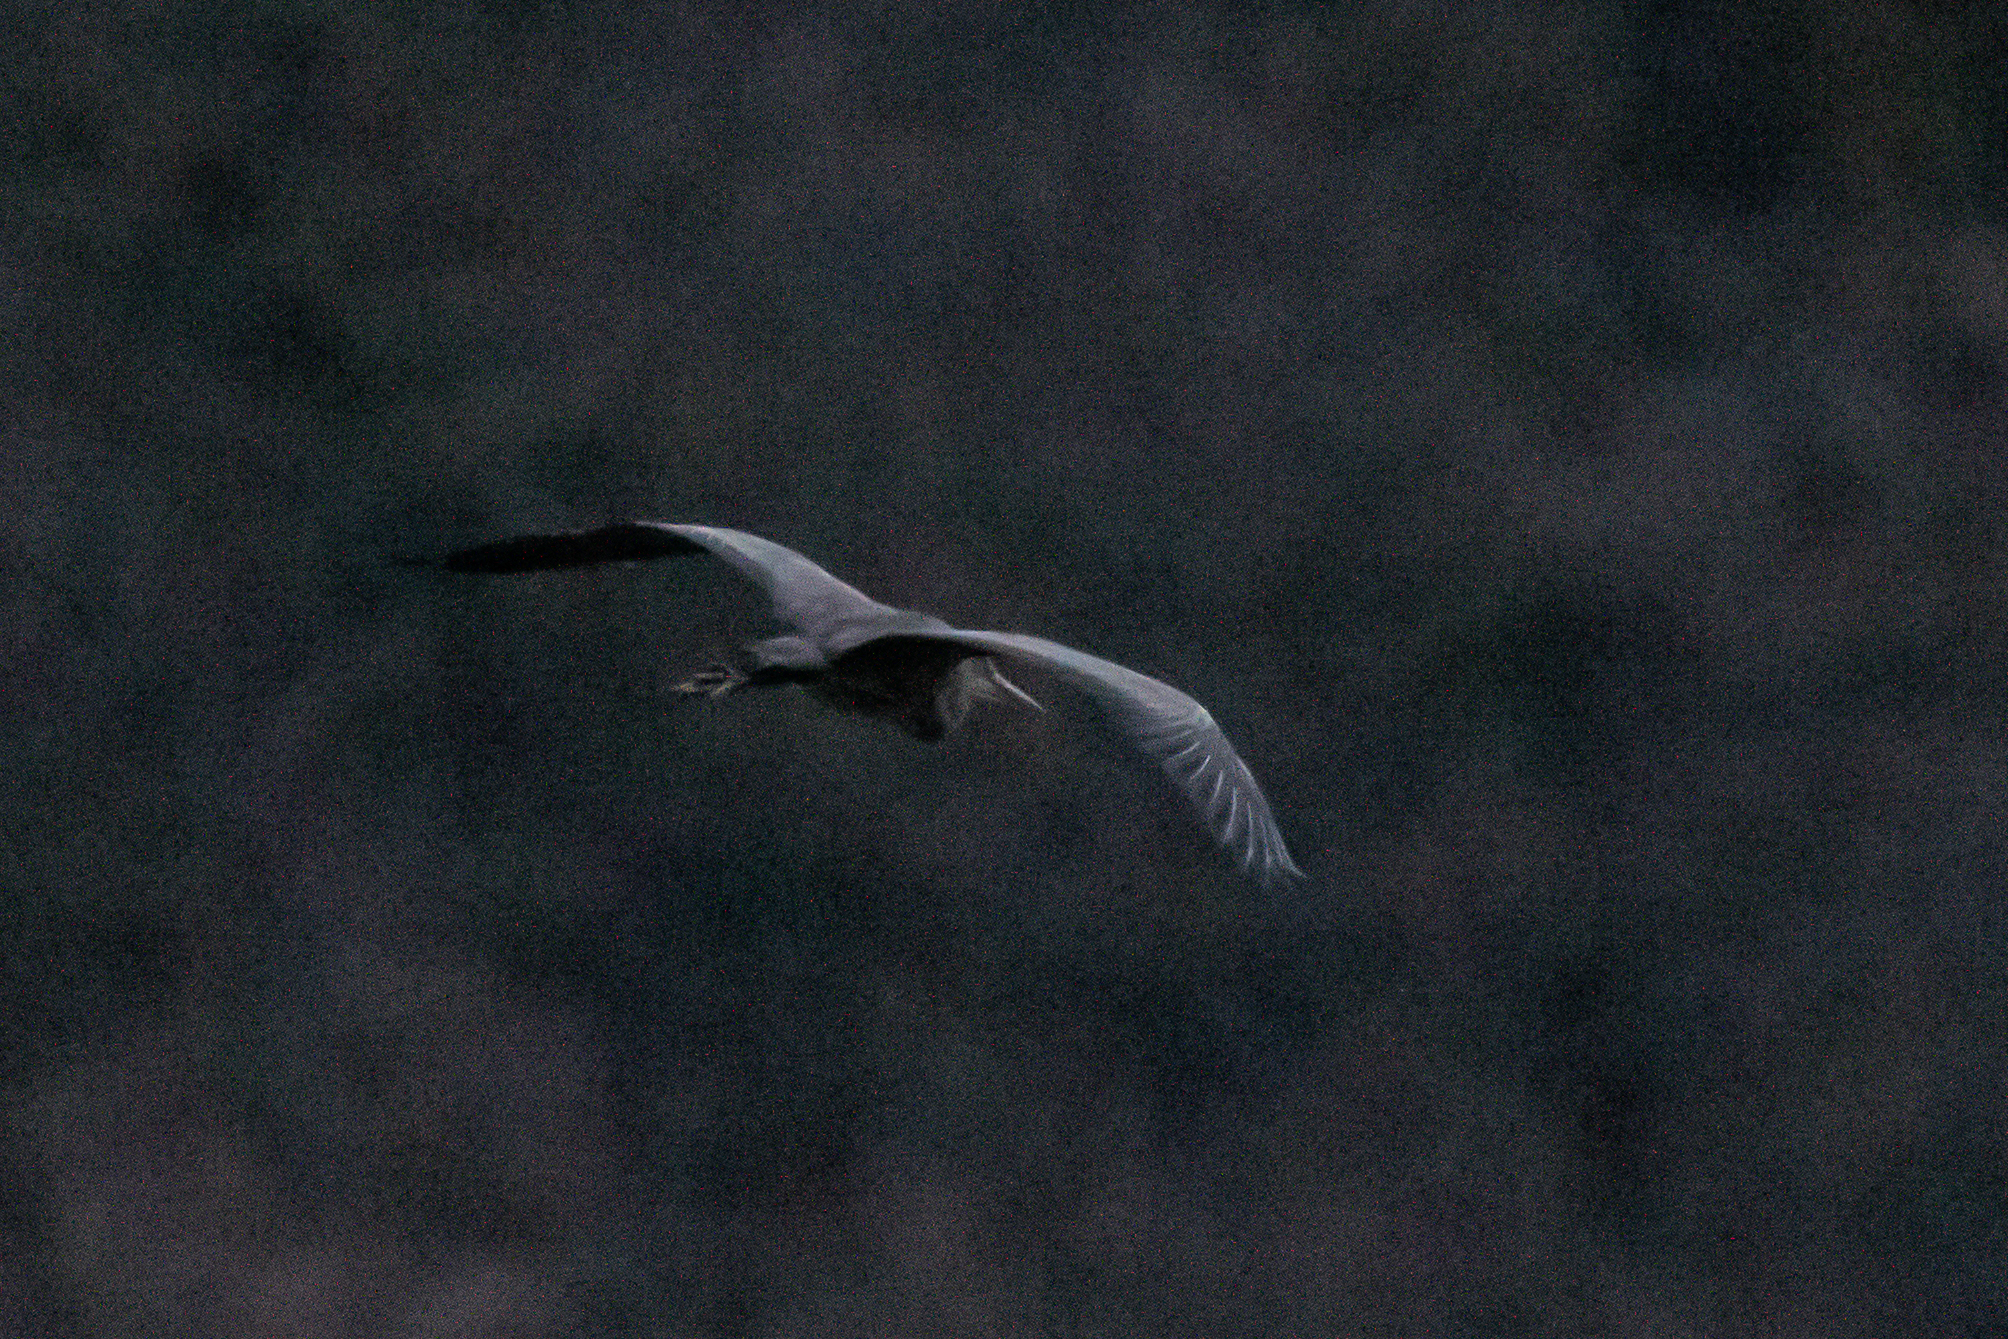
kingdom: Animalia
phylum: Chordata
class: Aves
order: Pelecaniformes
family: Ardeidae
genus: Ardea
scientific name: Ardea cinerea
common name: Grey heron
